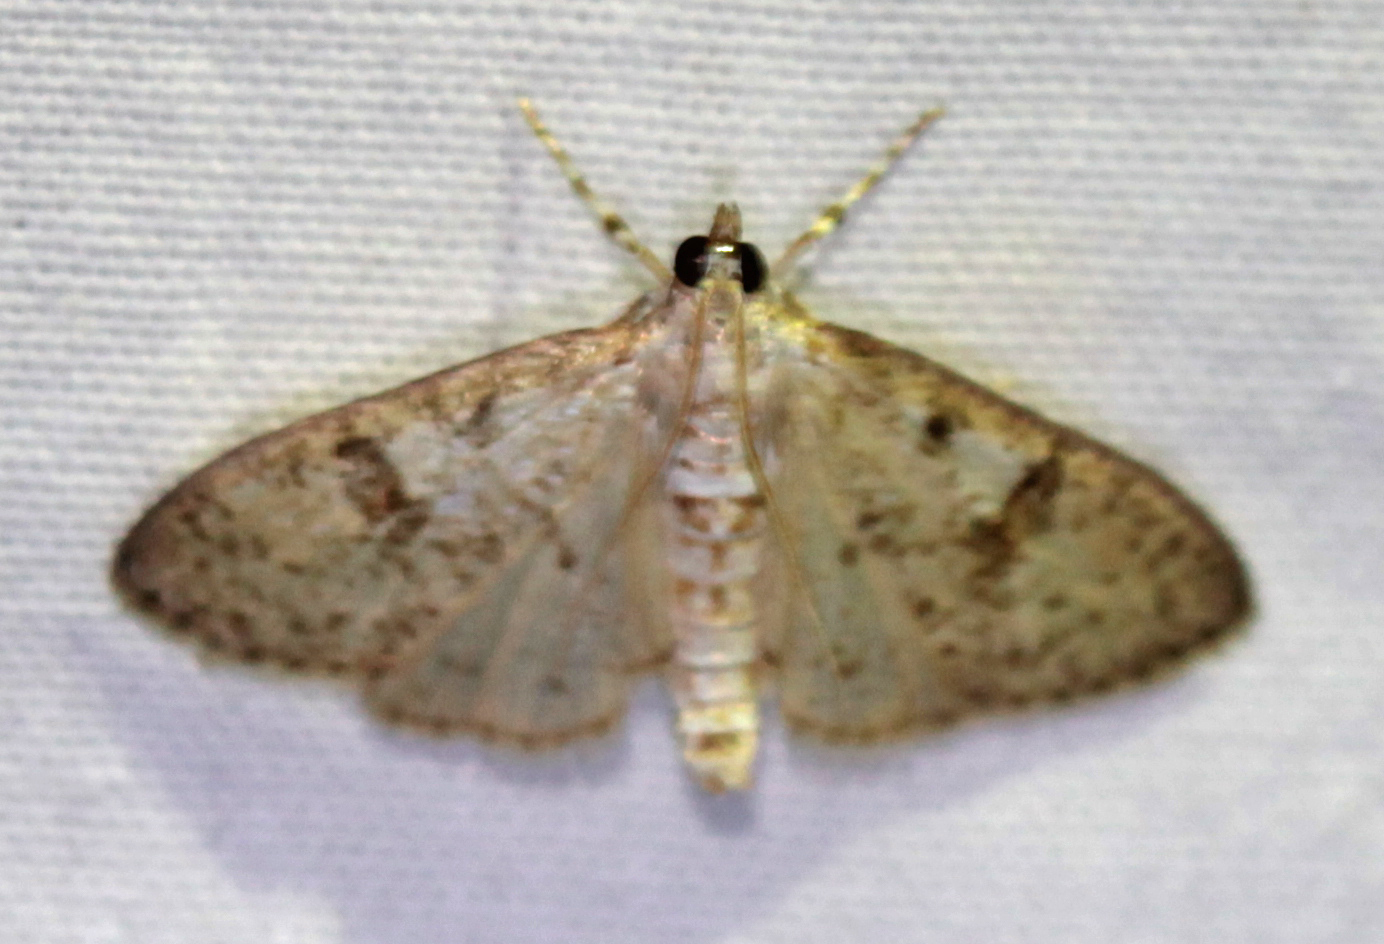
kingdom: Animalia
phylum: Arthropoda
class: Insecta
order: Lepidoptera
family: Crambidae
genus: Palpita
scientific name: Palpita freemanalis
